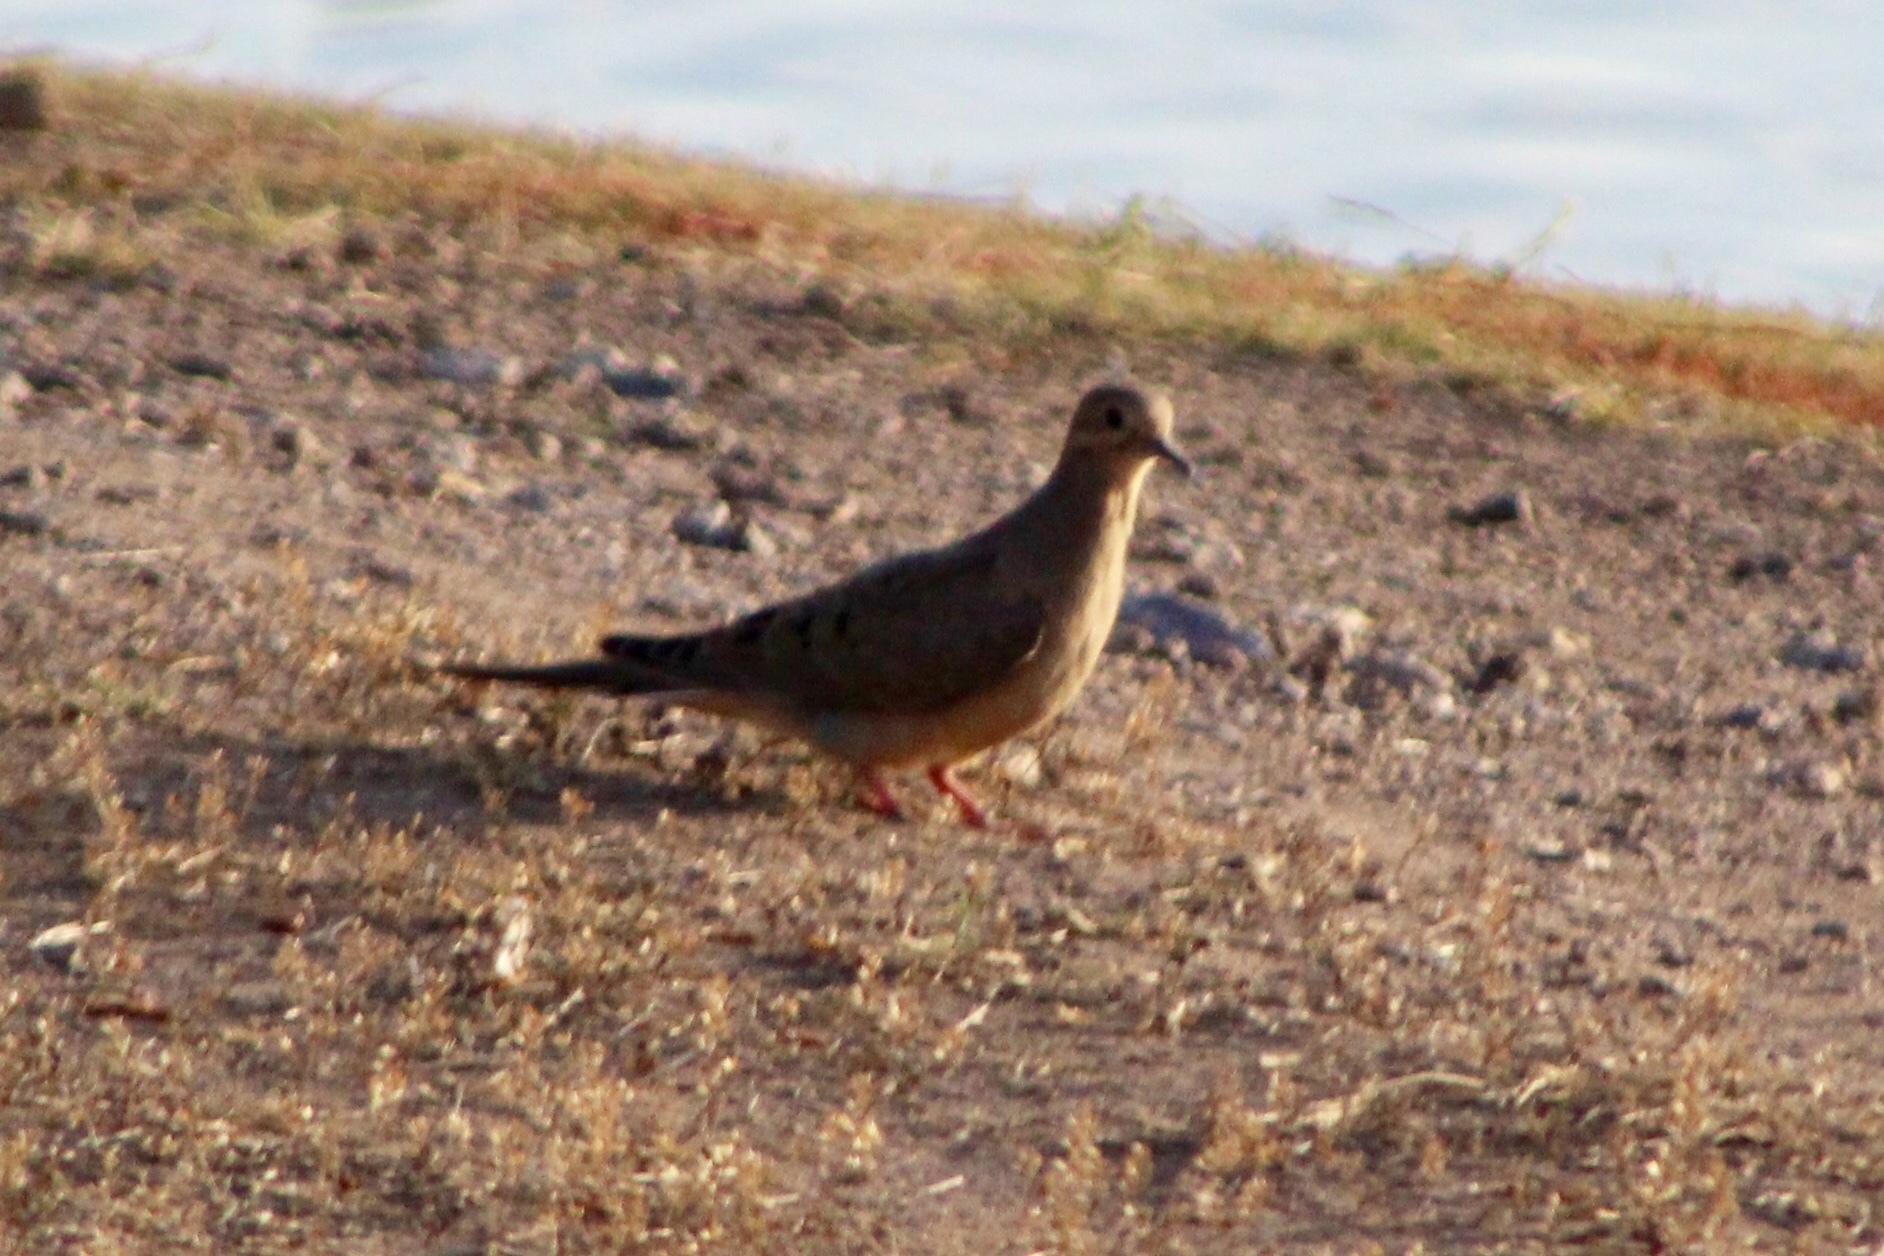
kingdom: Animalia
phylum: Chordata
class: Aves
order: Columbiformes
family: Columbidae
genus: Zenaida
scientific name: Zenaida macroura
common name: Mourning dove
